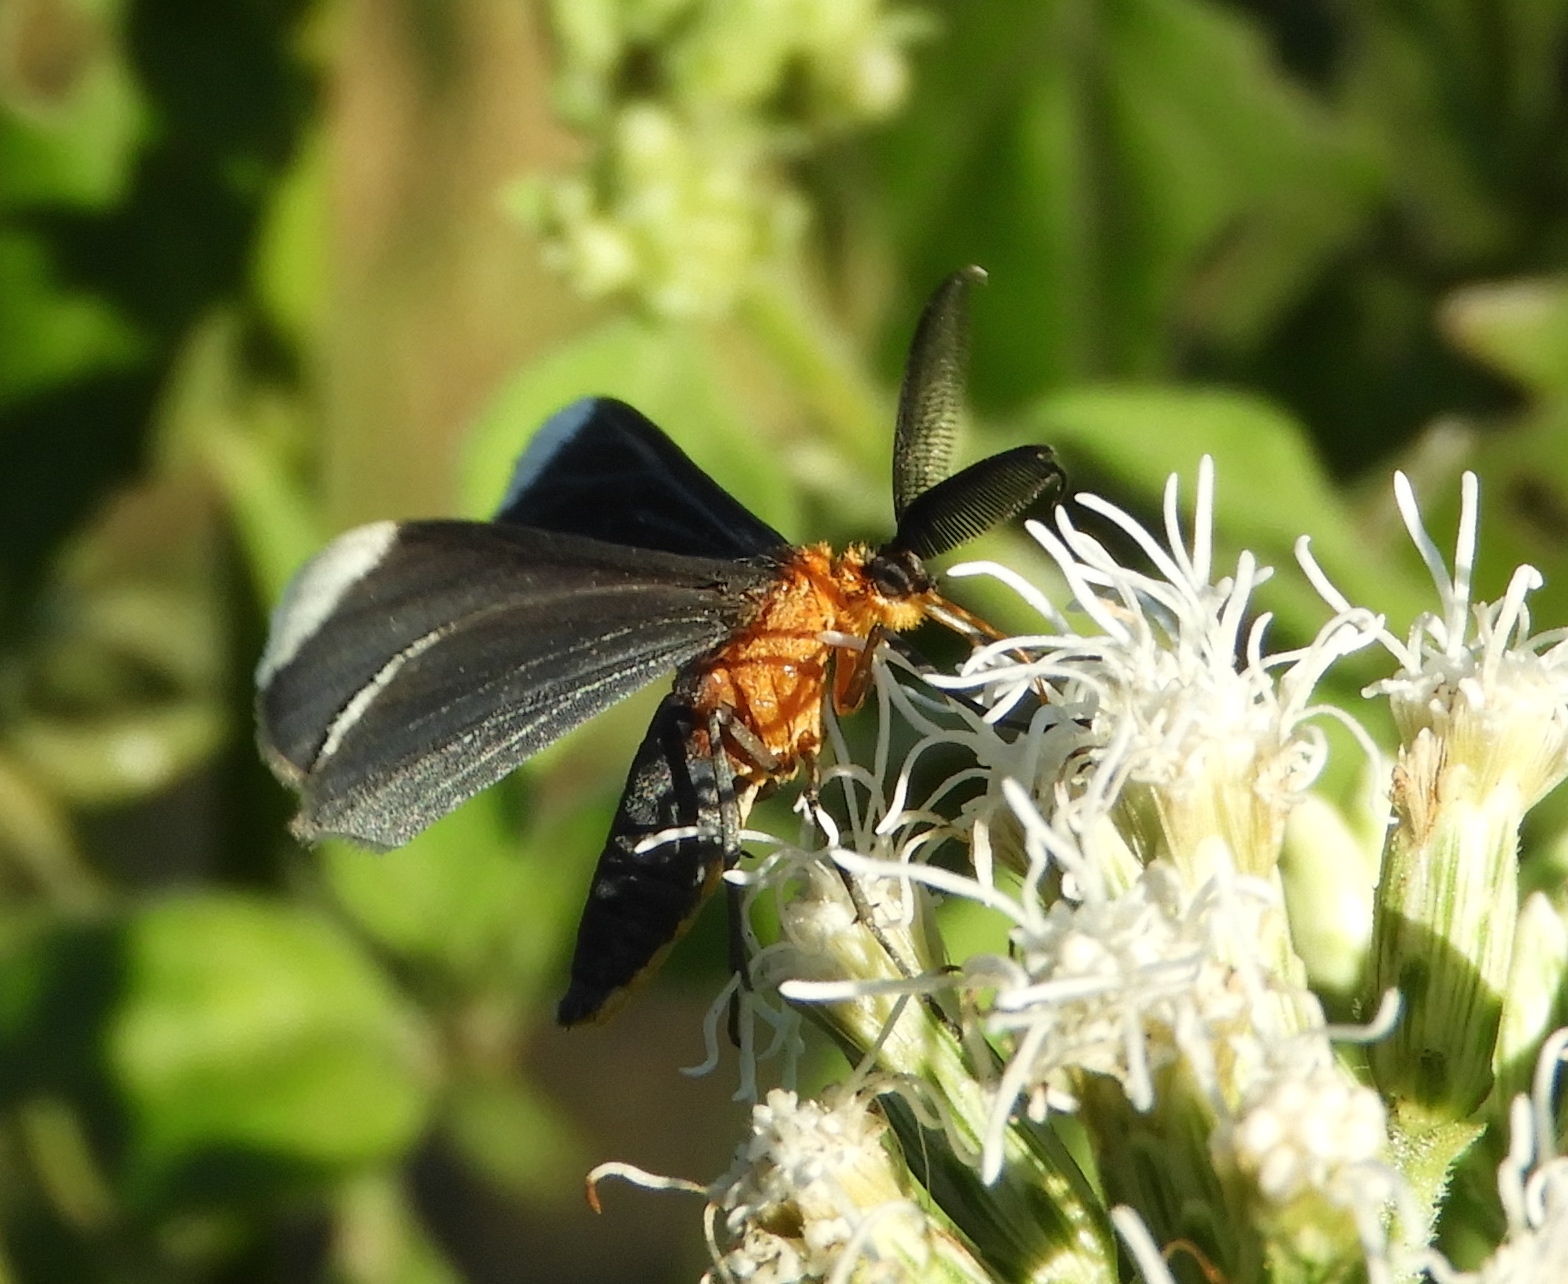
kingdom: Animalia
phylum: Arthropoda
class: Insecta
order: Lepidoptera
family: Geometridae
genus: Melanchroia
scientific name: Melanchroia chephise
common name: White-tipped black
